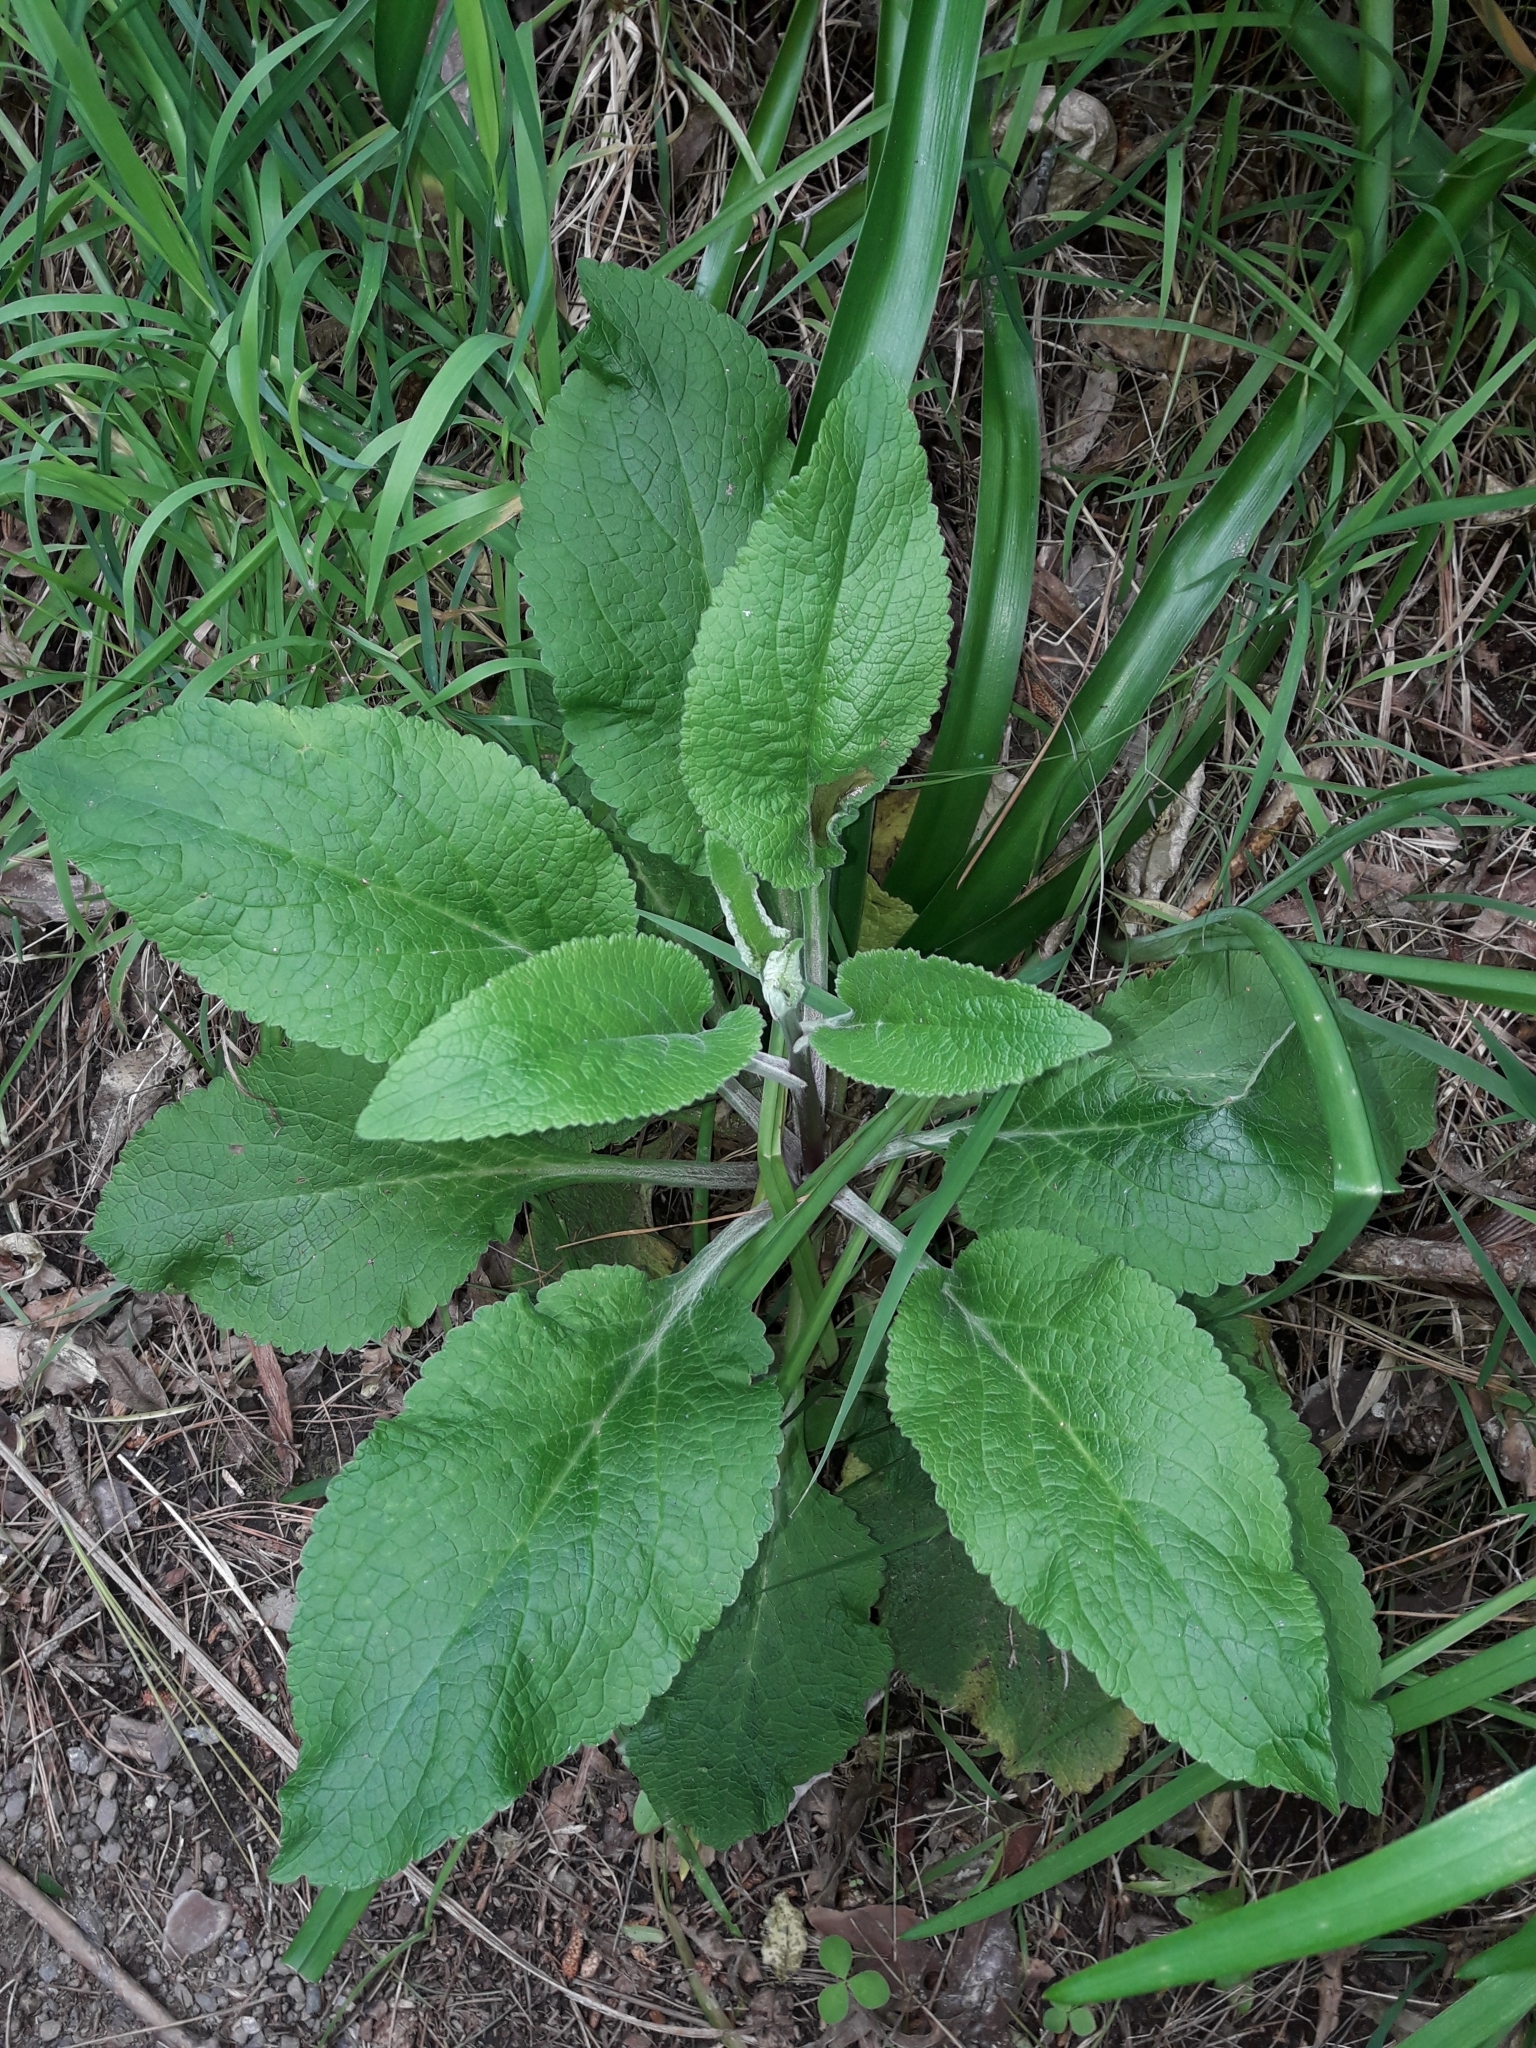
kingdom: Plantae
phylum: Tracheophyta
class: Magnoliopsida
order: Lamiales
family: Plantaginaceae
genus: Digitalis
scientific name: Digitalis purpurea
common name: Foxglove
